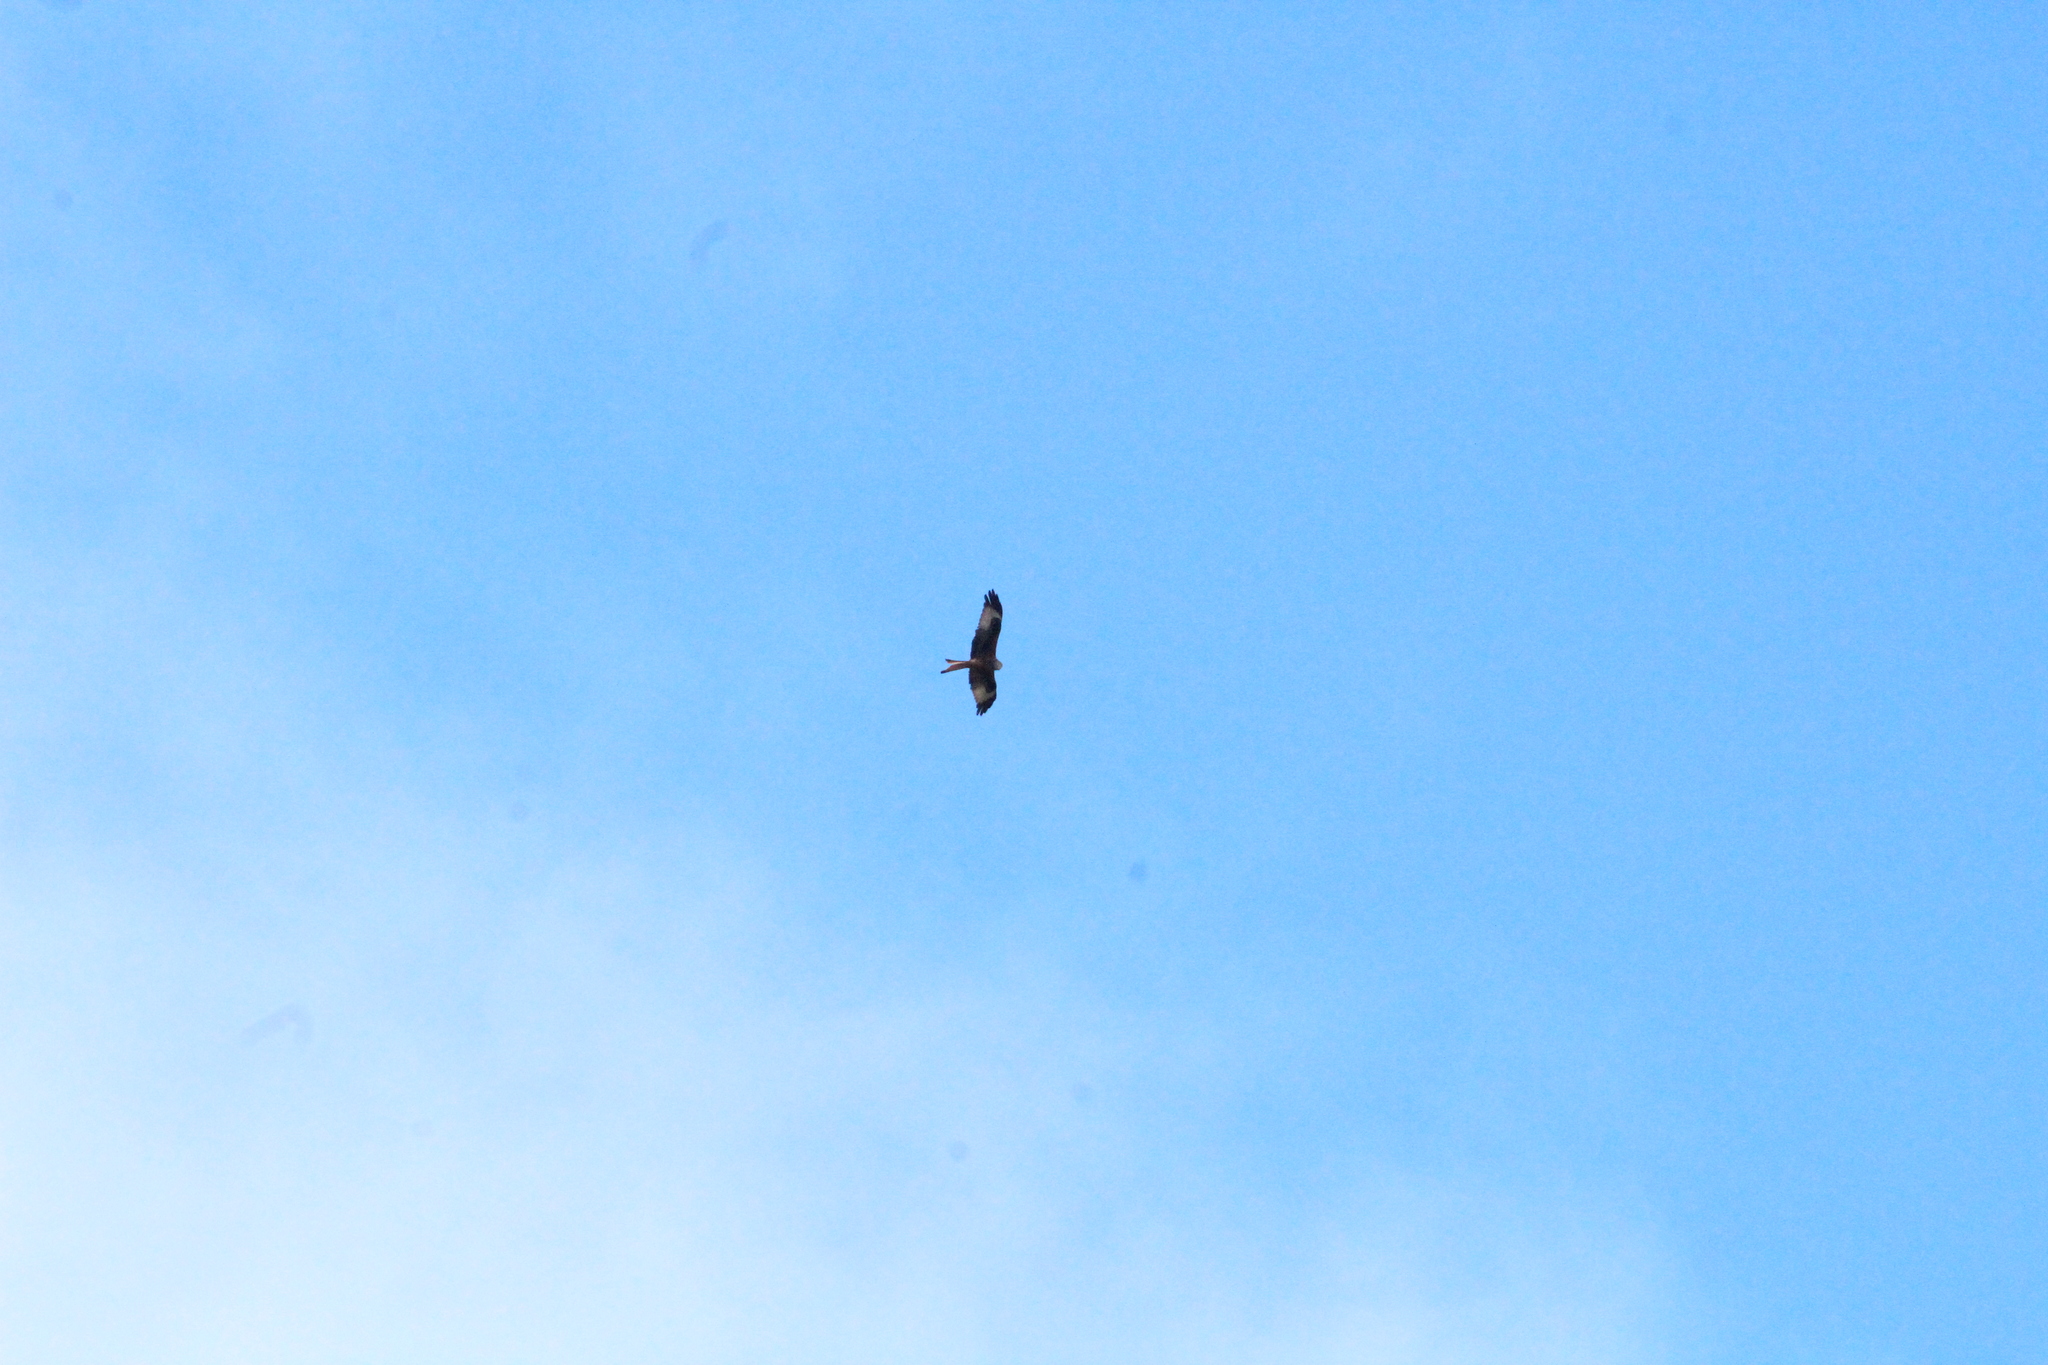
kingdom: Animalia
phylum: Chordata
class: Aves
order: Accipitriformes
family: Accipitridae
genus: Milvus
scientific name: Milvus milvus
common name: Red kite
